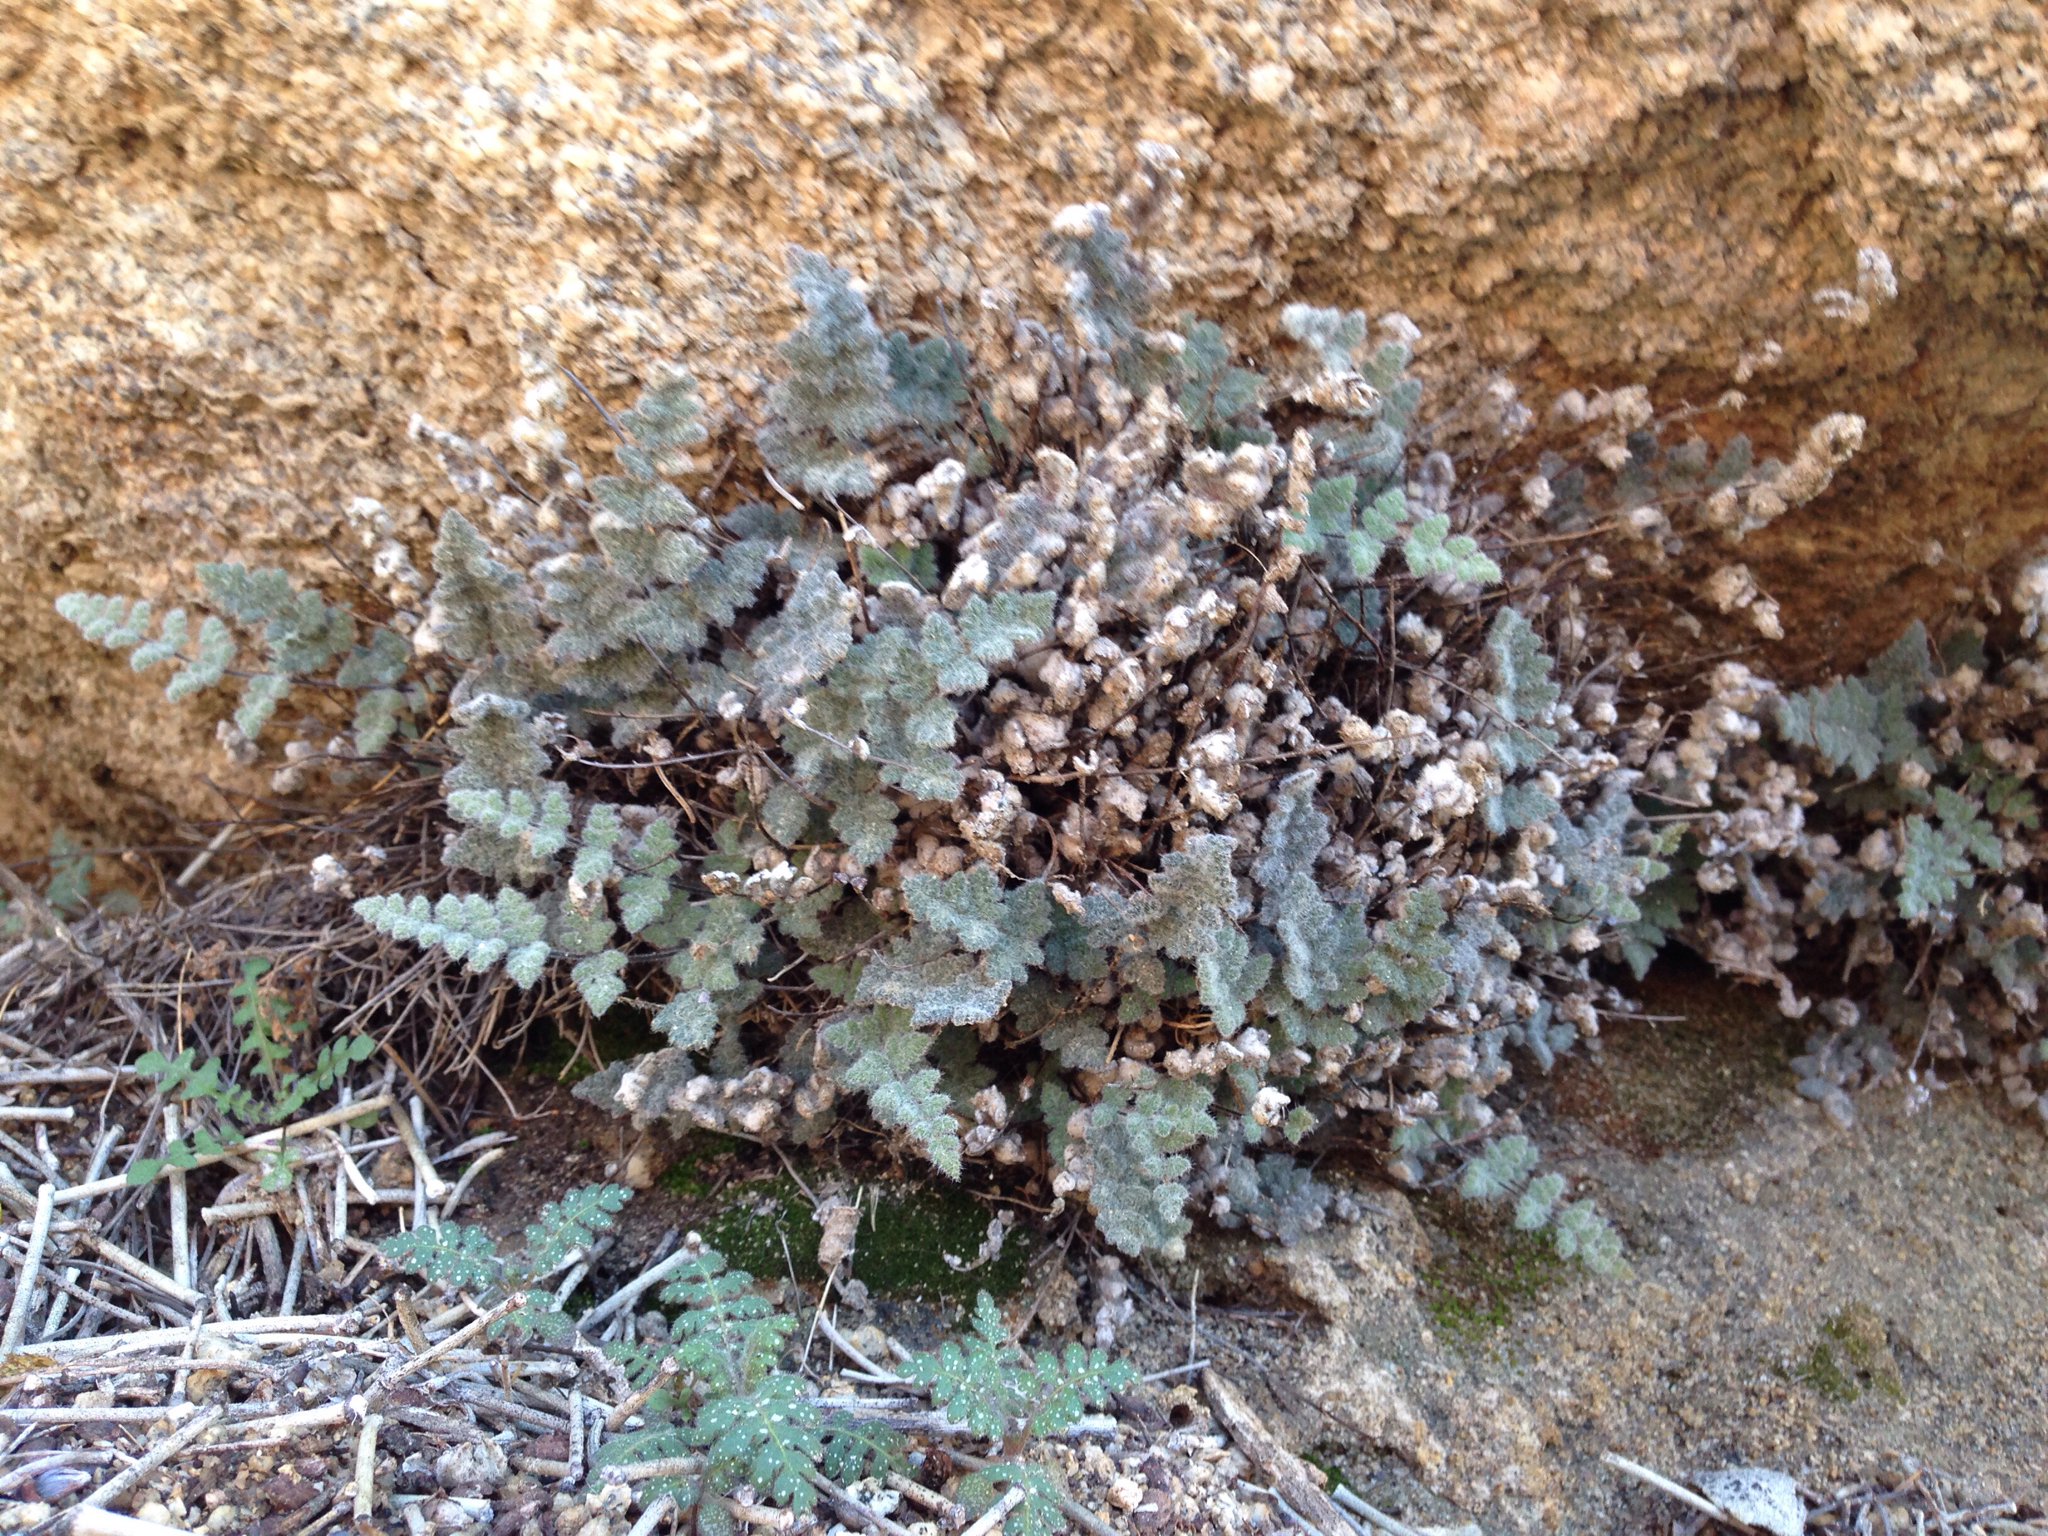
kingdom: Plantae
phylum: Tracheophyta
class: Polypodiopsida
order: Polypodiales
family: Pteridaceae
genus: Myriopteris
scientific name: Myriopteris parryi
